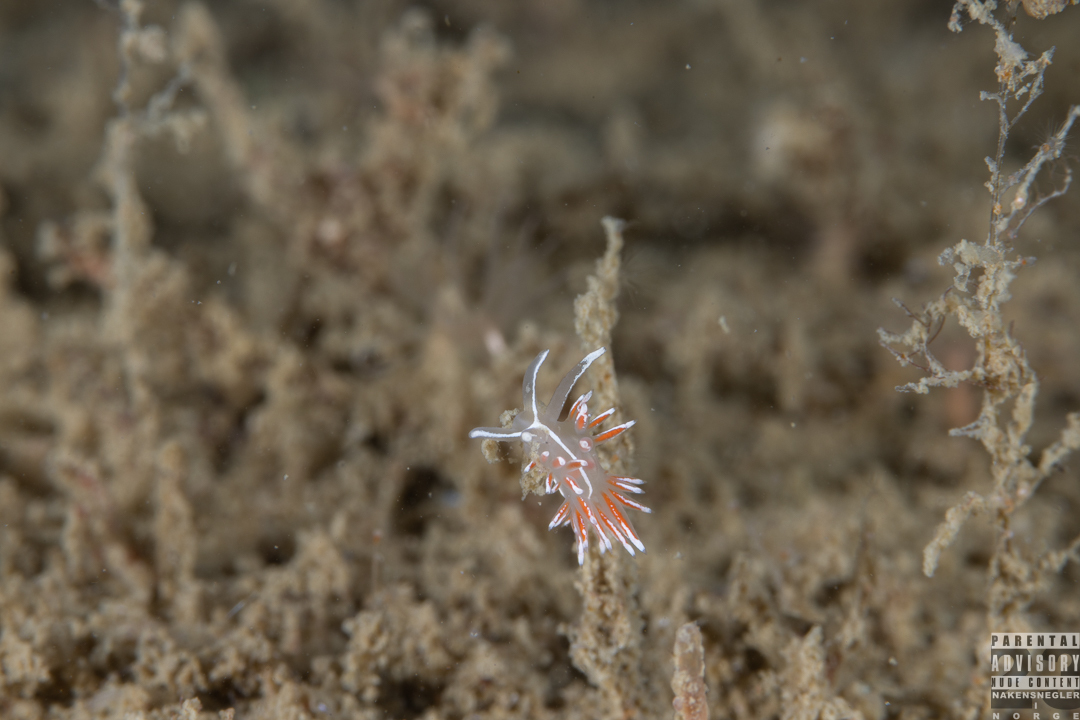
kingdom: Animalia
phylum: Mollusca
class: Gastropoda
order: Nudibranchia
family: Coryphellidae
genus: Coryphella
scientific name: Coryphella lineata
